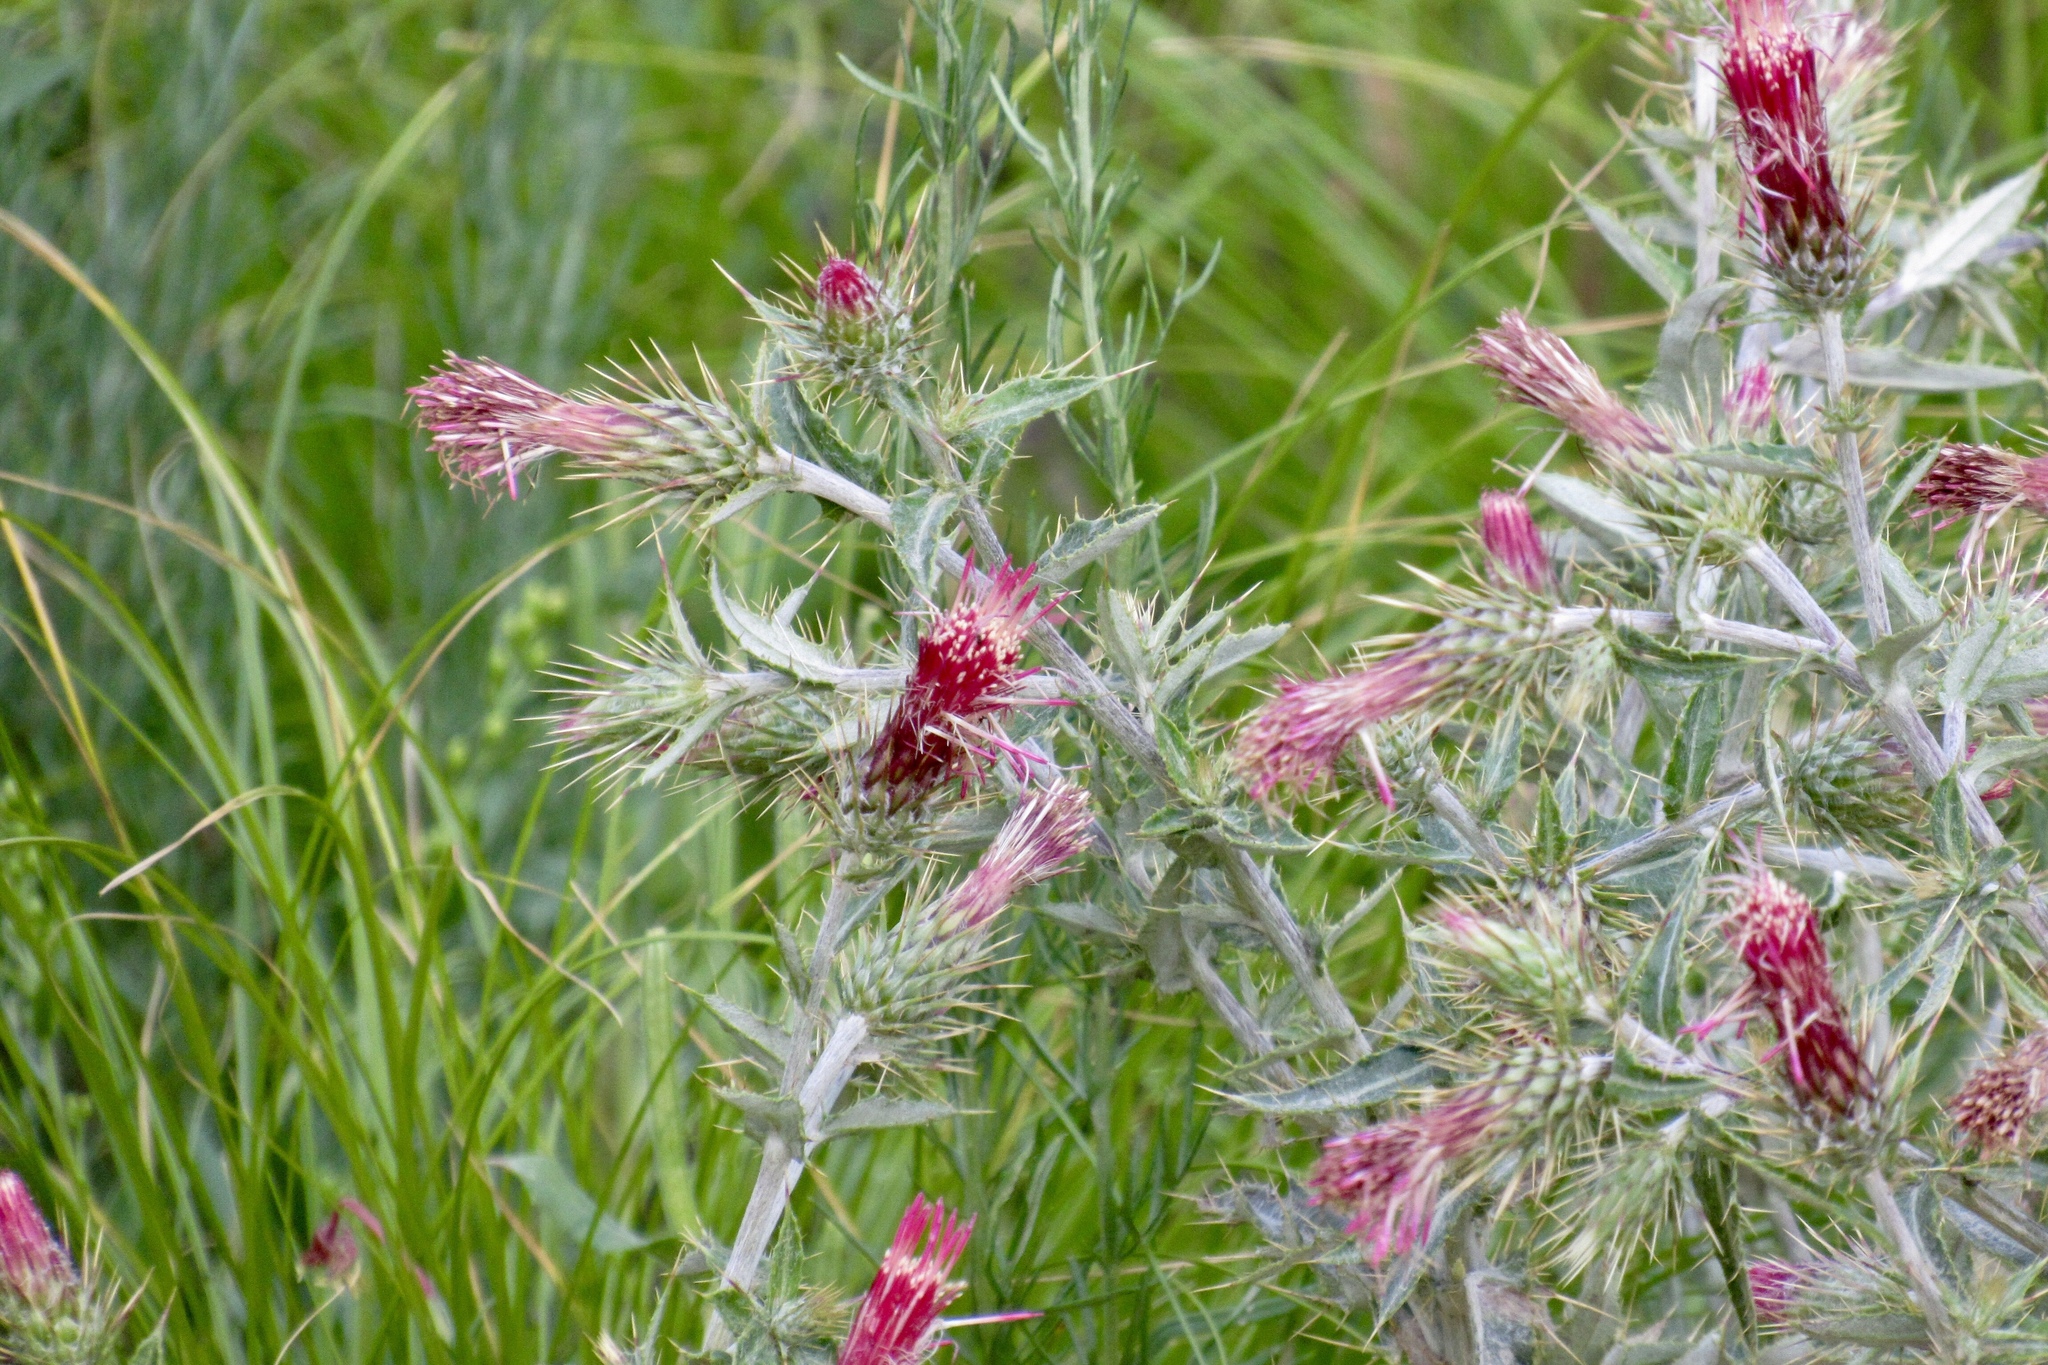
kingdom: Plantae
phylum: Tracheophyta
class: Magnoliopsida
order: Asterales
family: Asteraceae
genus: Cirsium
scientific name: Cirsium arizonicum
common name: Arizona thistle
